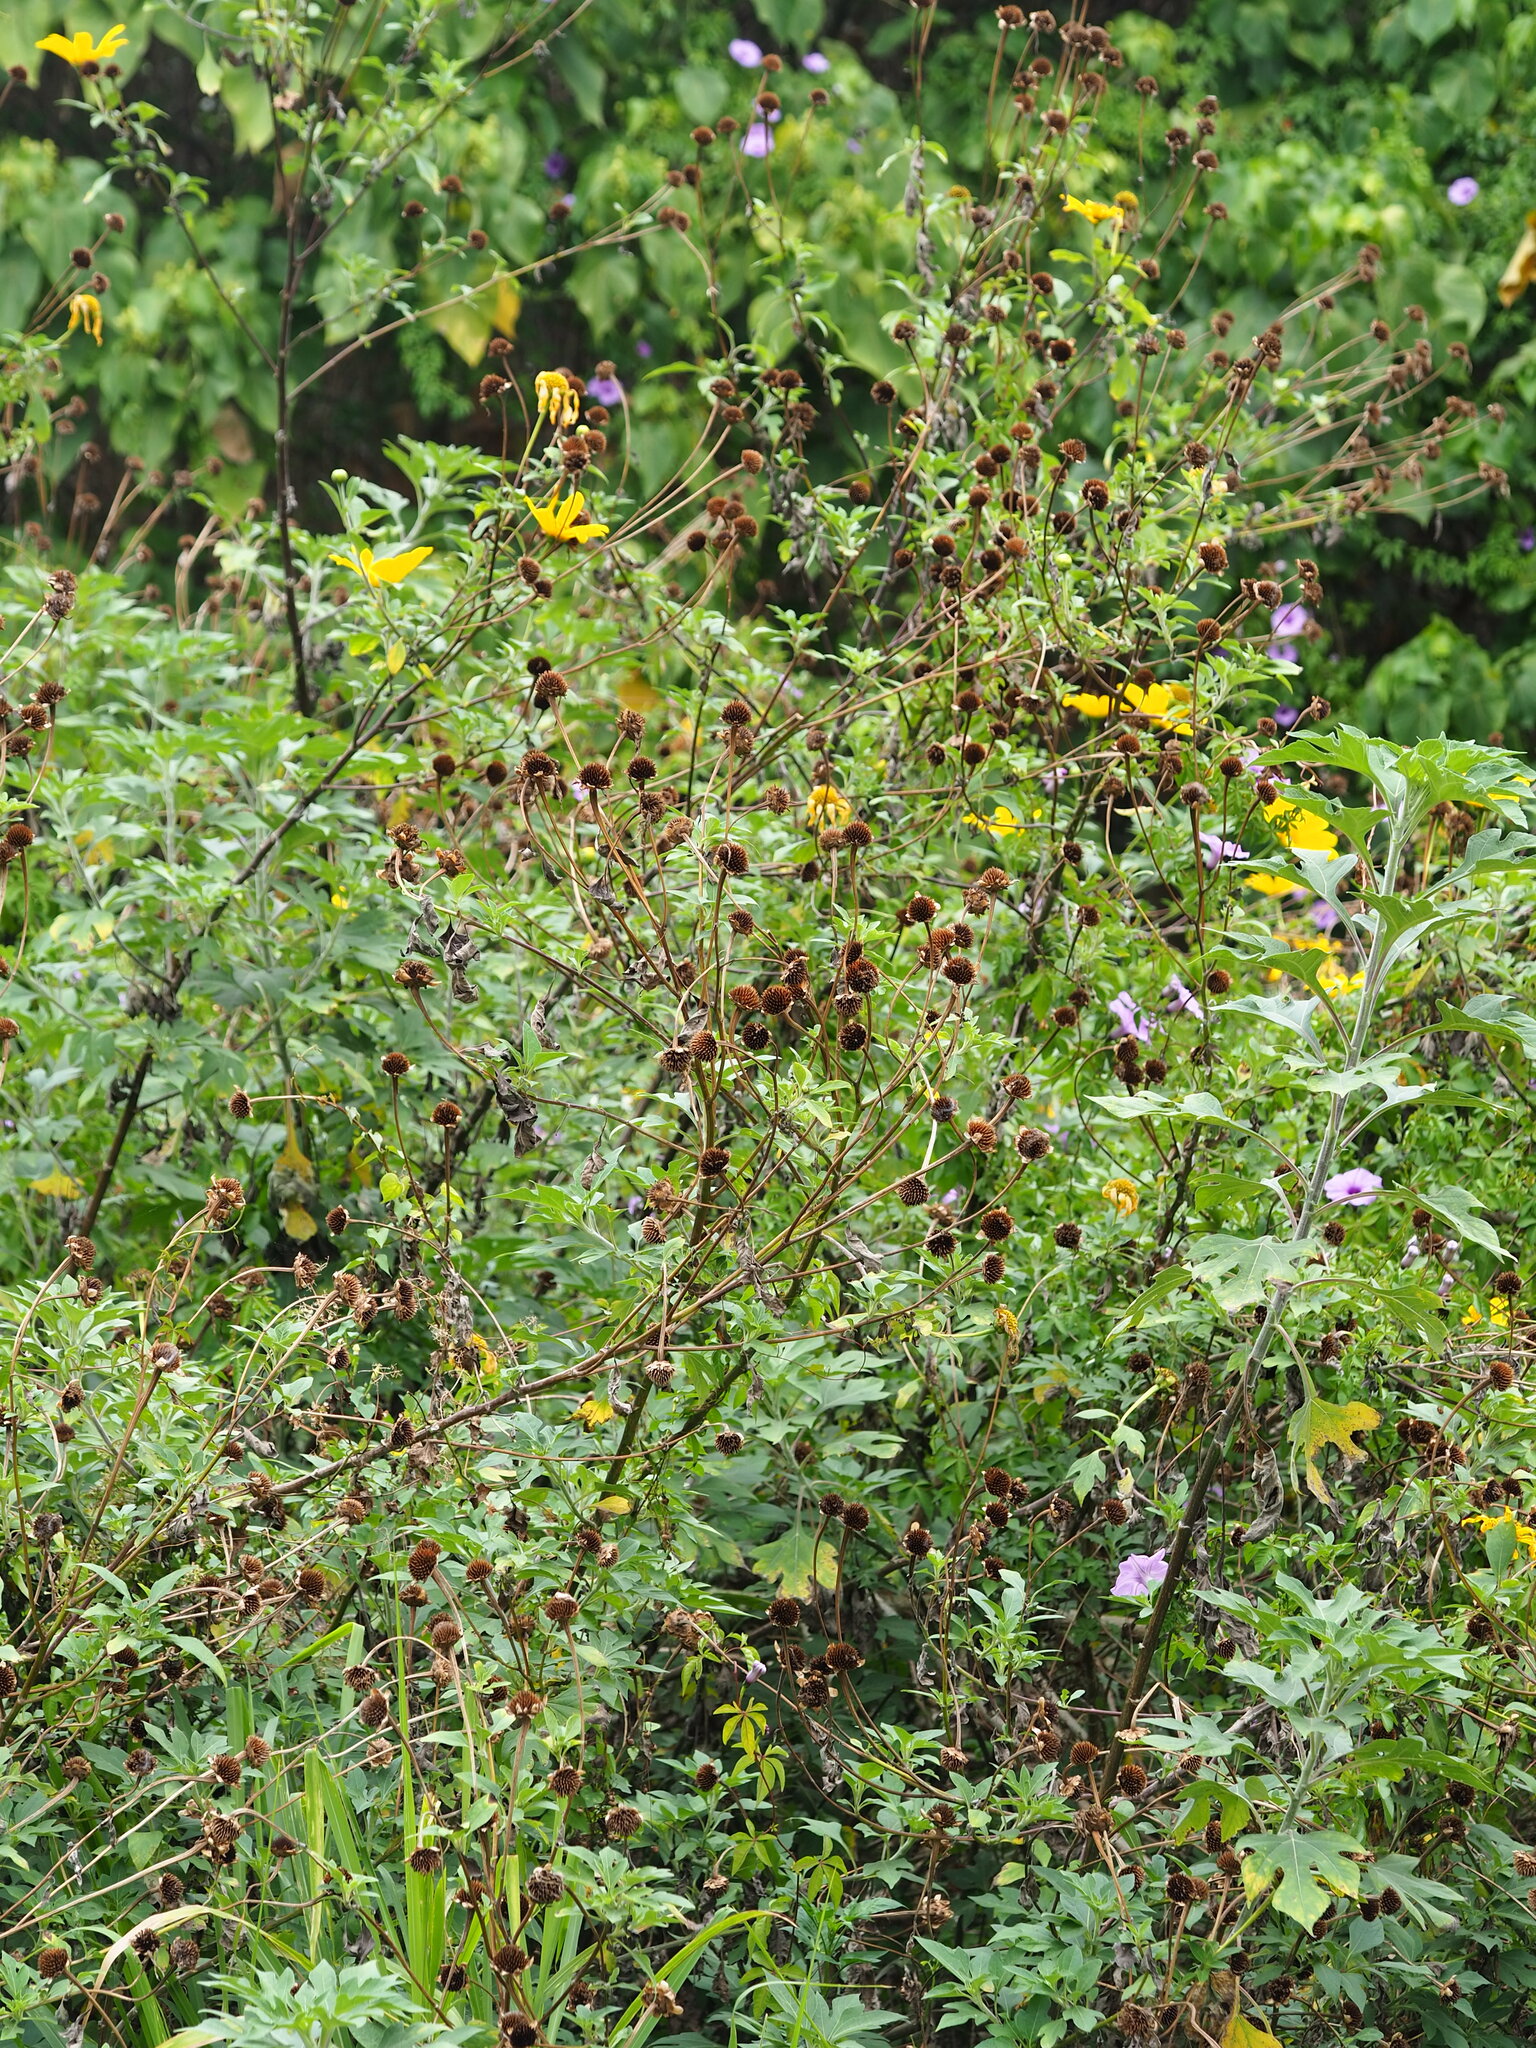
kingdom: Plantae
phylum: Tracheophyta
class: Magnoliopsida
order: Asterales
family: Asteraceae
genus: Tithonia
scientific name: Tithonia diversifolia
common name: Tree marigold
